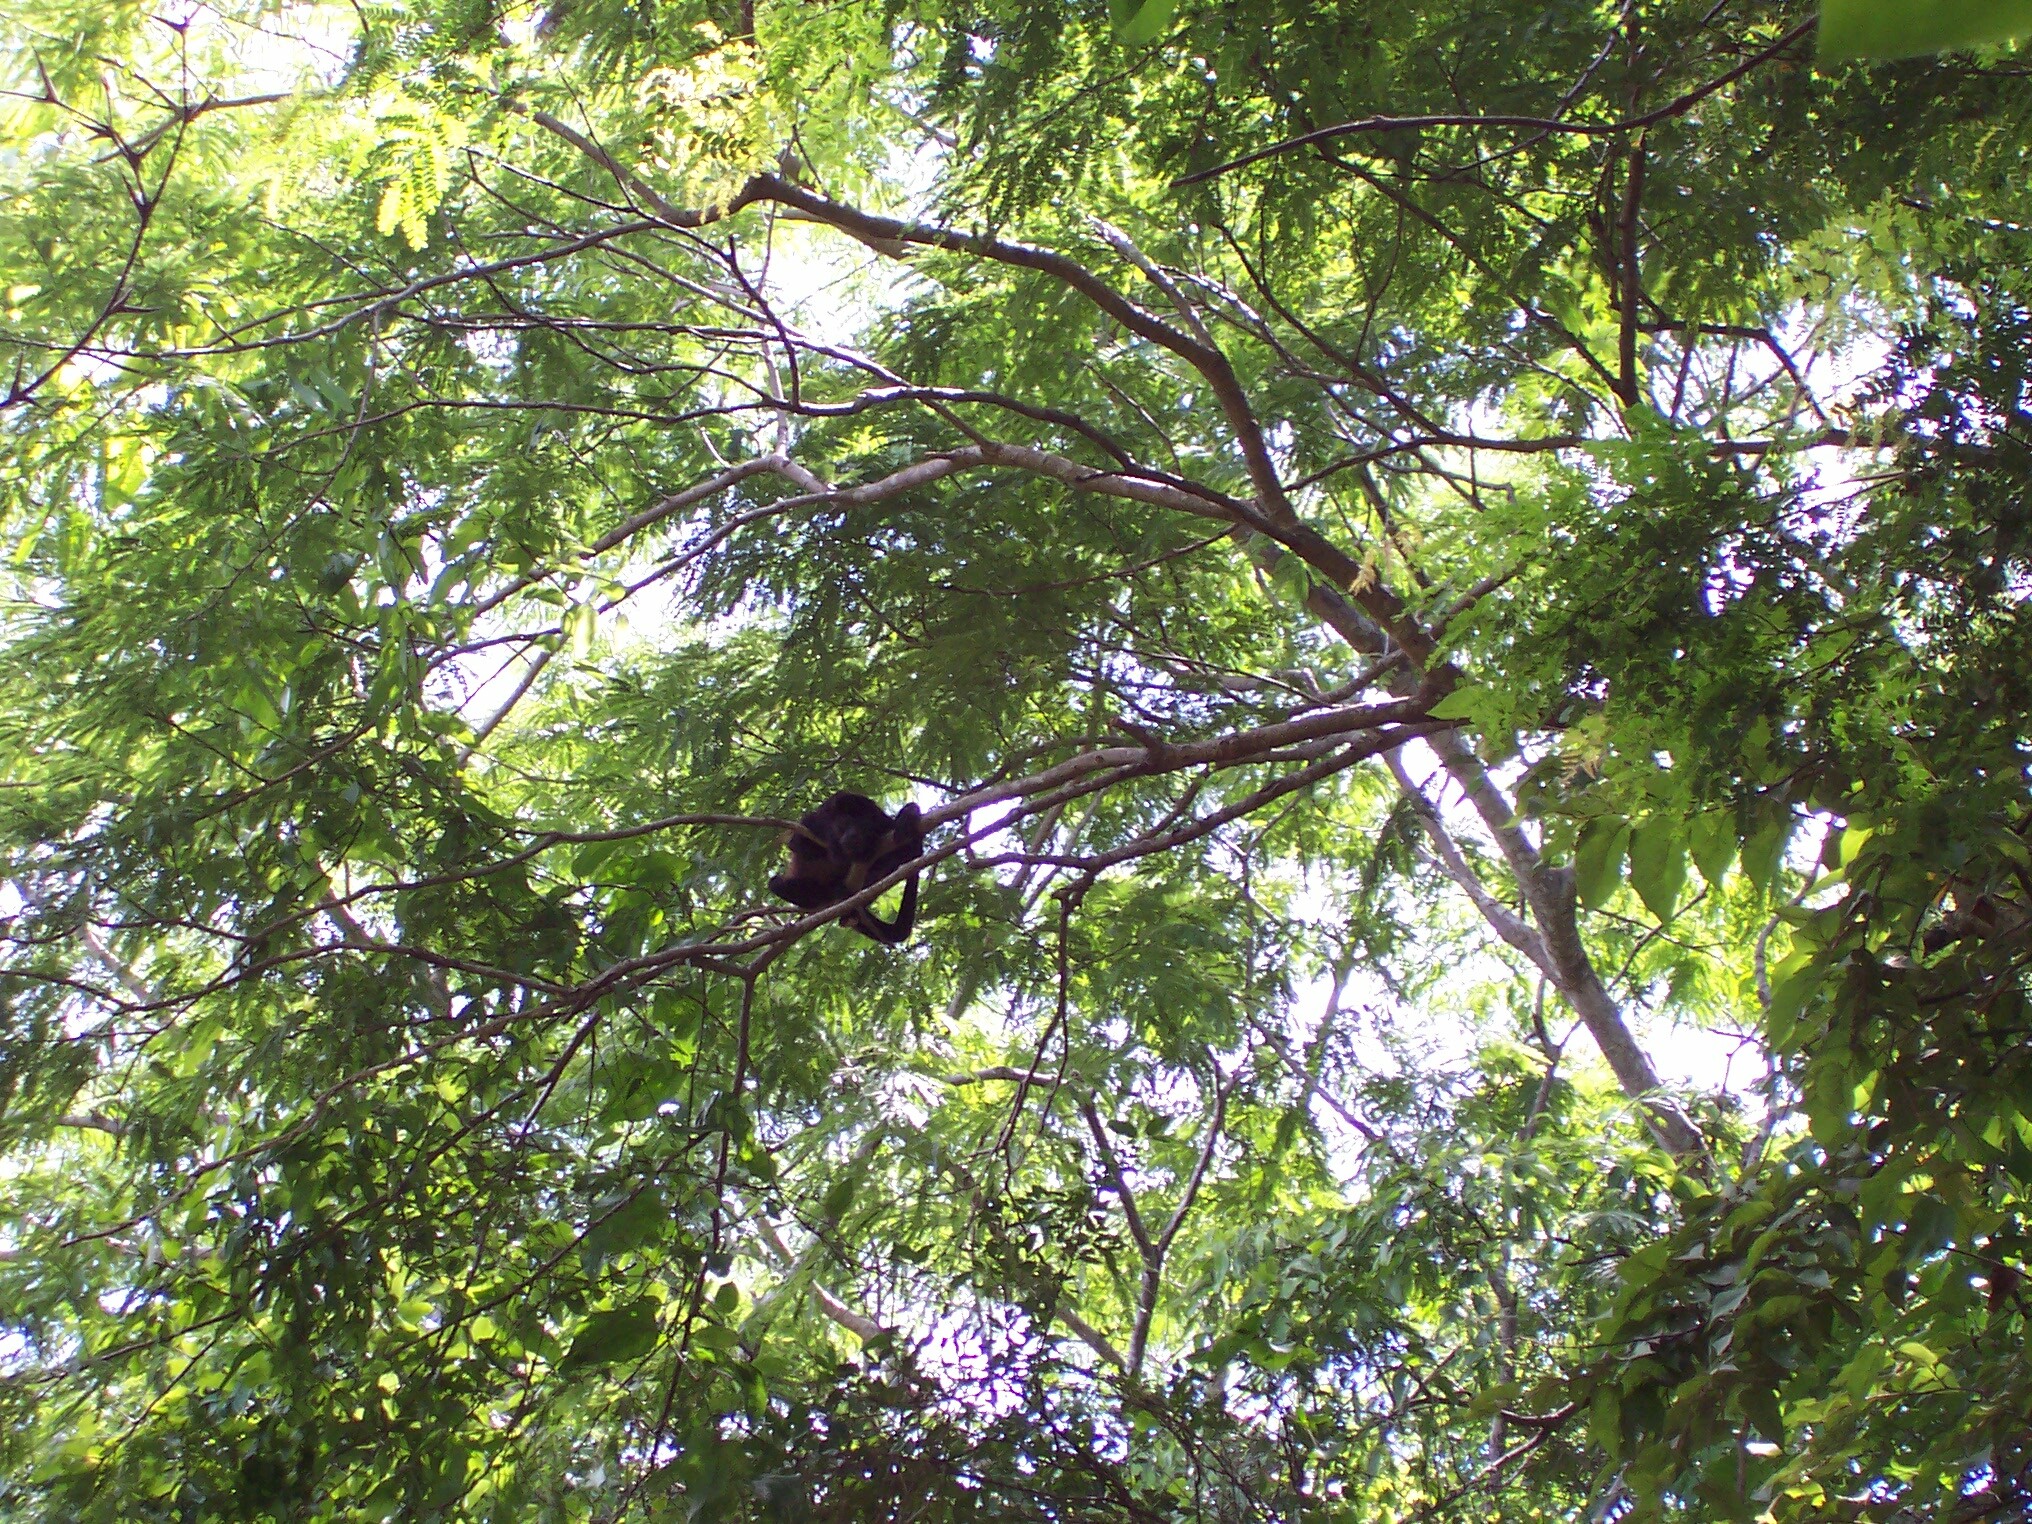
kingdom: Animalia
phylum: Chordata
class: Mammalia
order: Primates
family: Atelidae
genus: Alouatta
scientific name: Alouatta palliata
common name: Mantled howler
